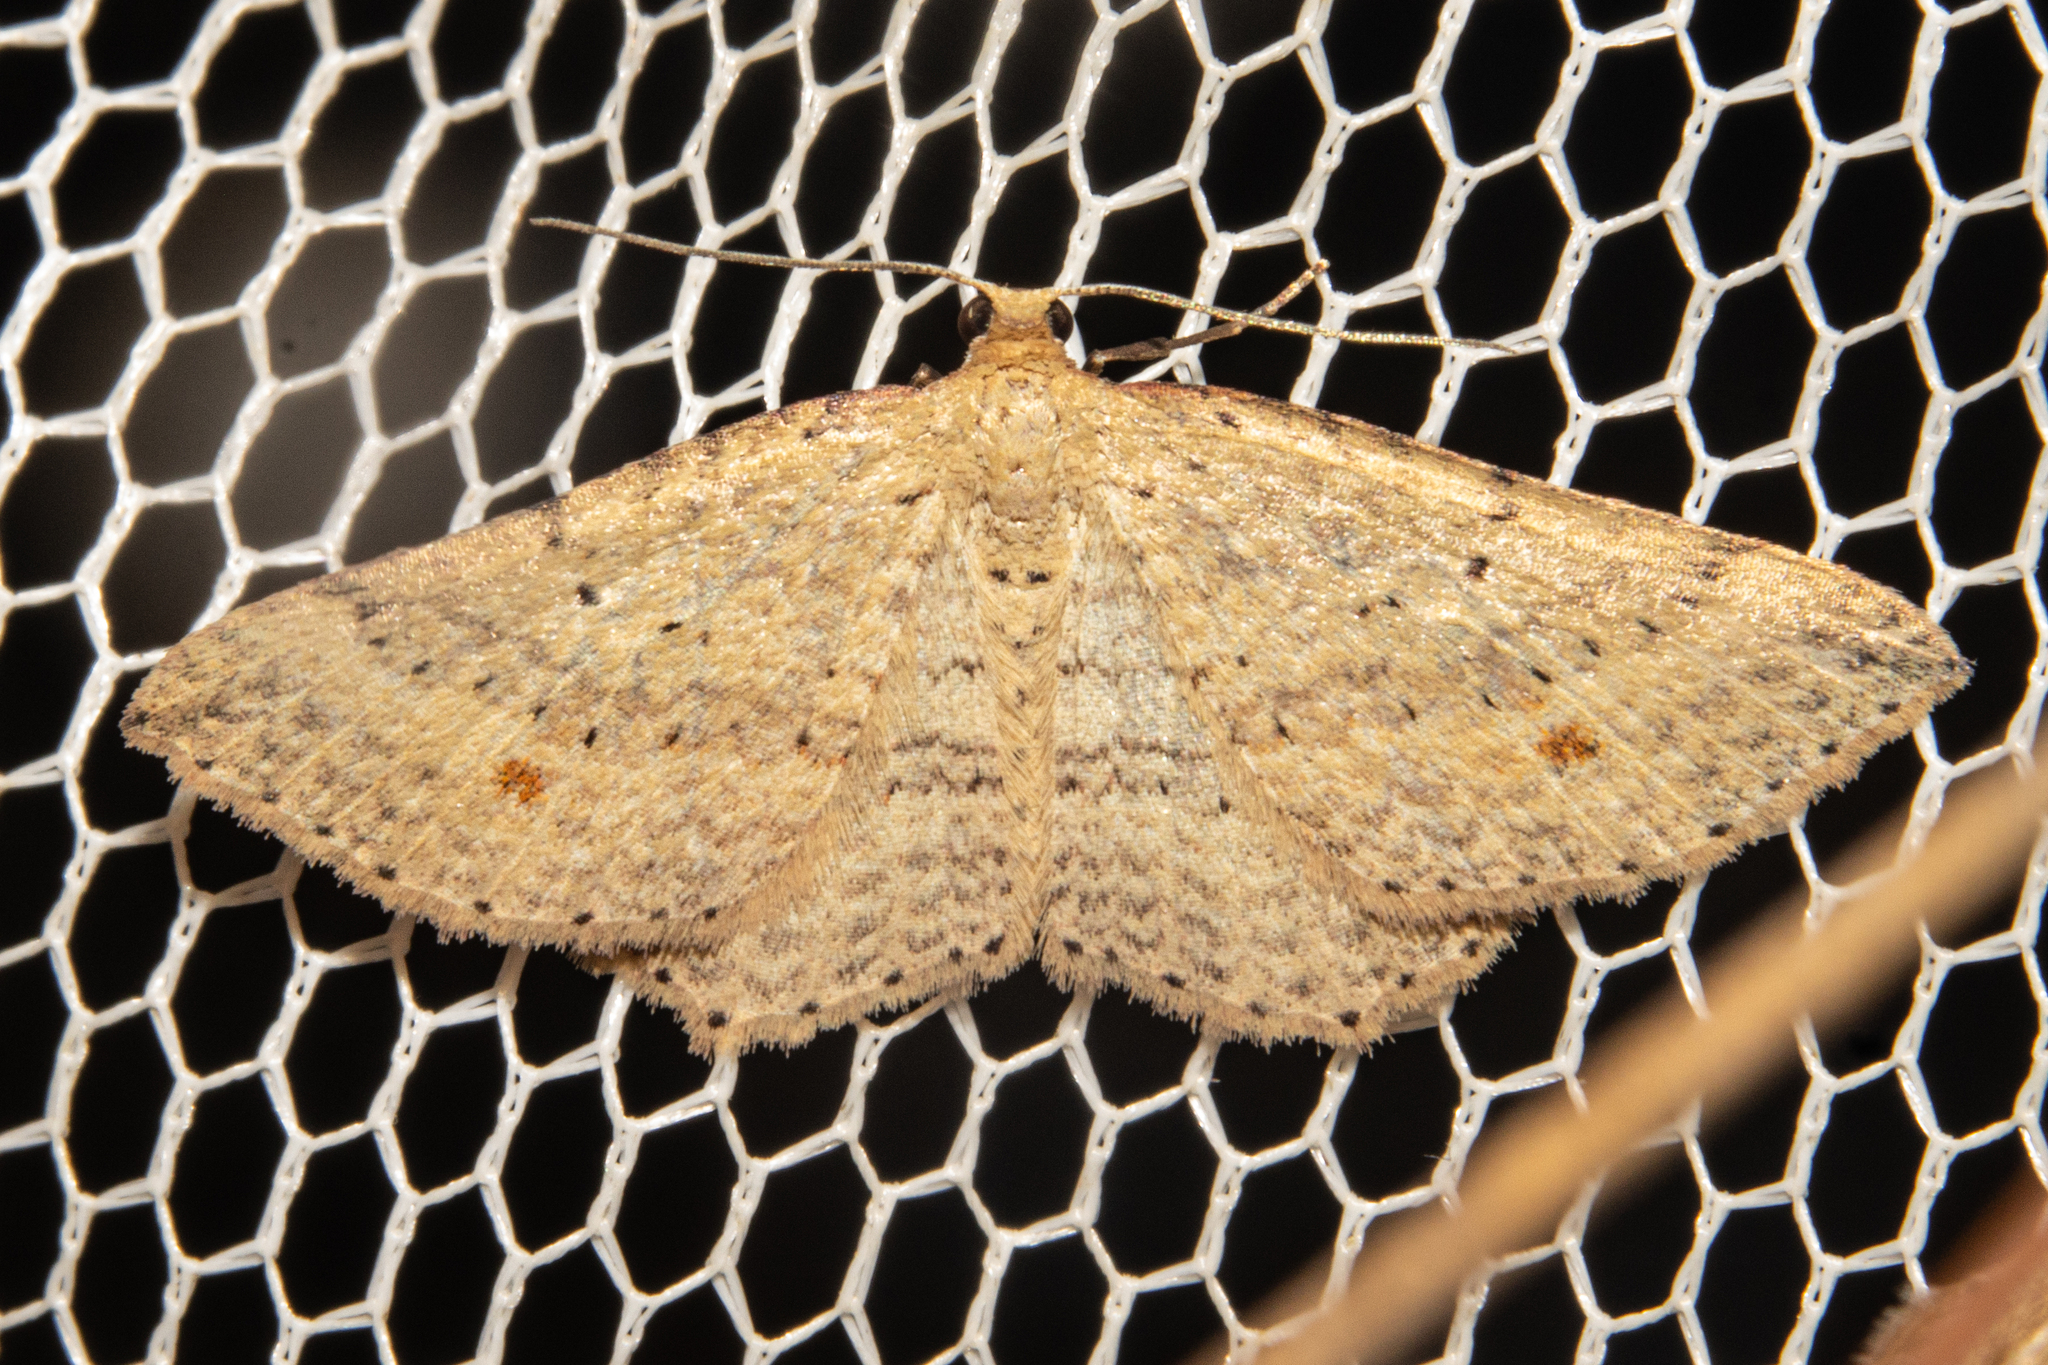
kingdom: Animalia
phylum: Arthropoda
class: Insecta
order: Lepidoptera
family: Geometridae
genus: Epicyme
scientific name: Epicyme rubropunctaria
